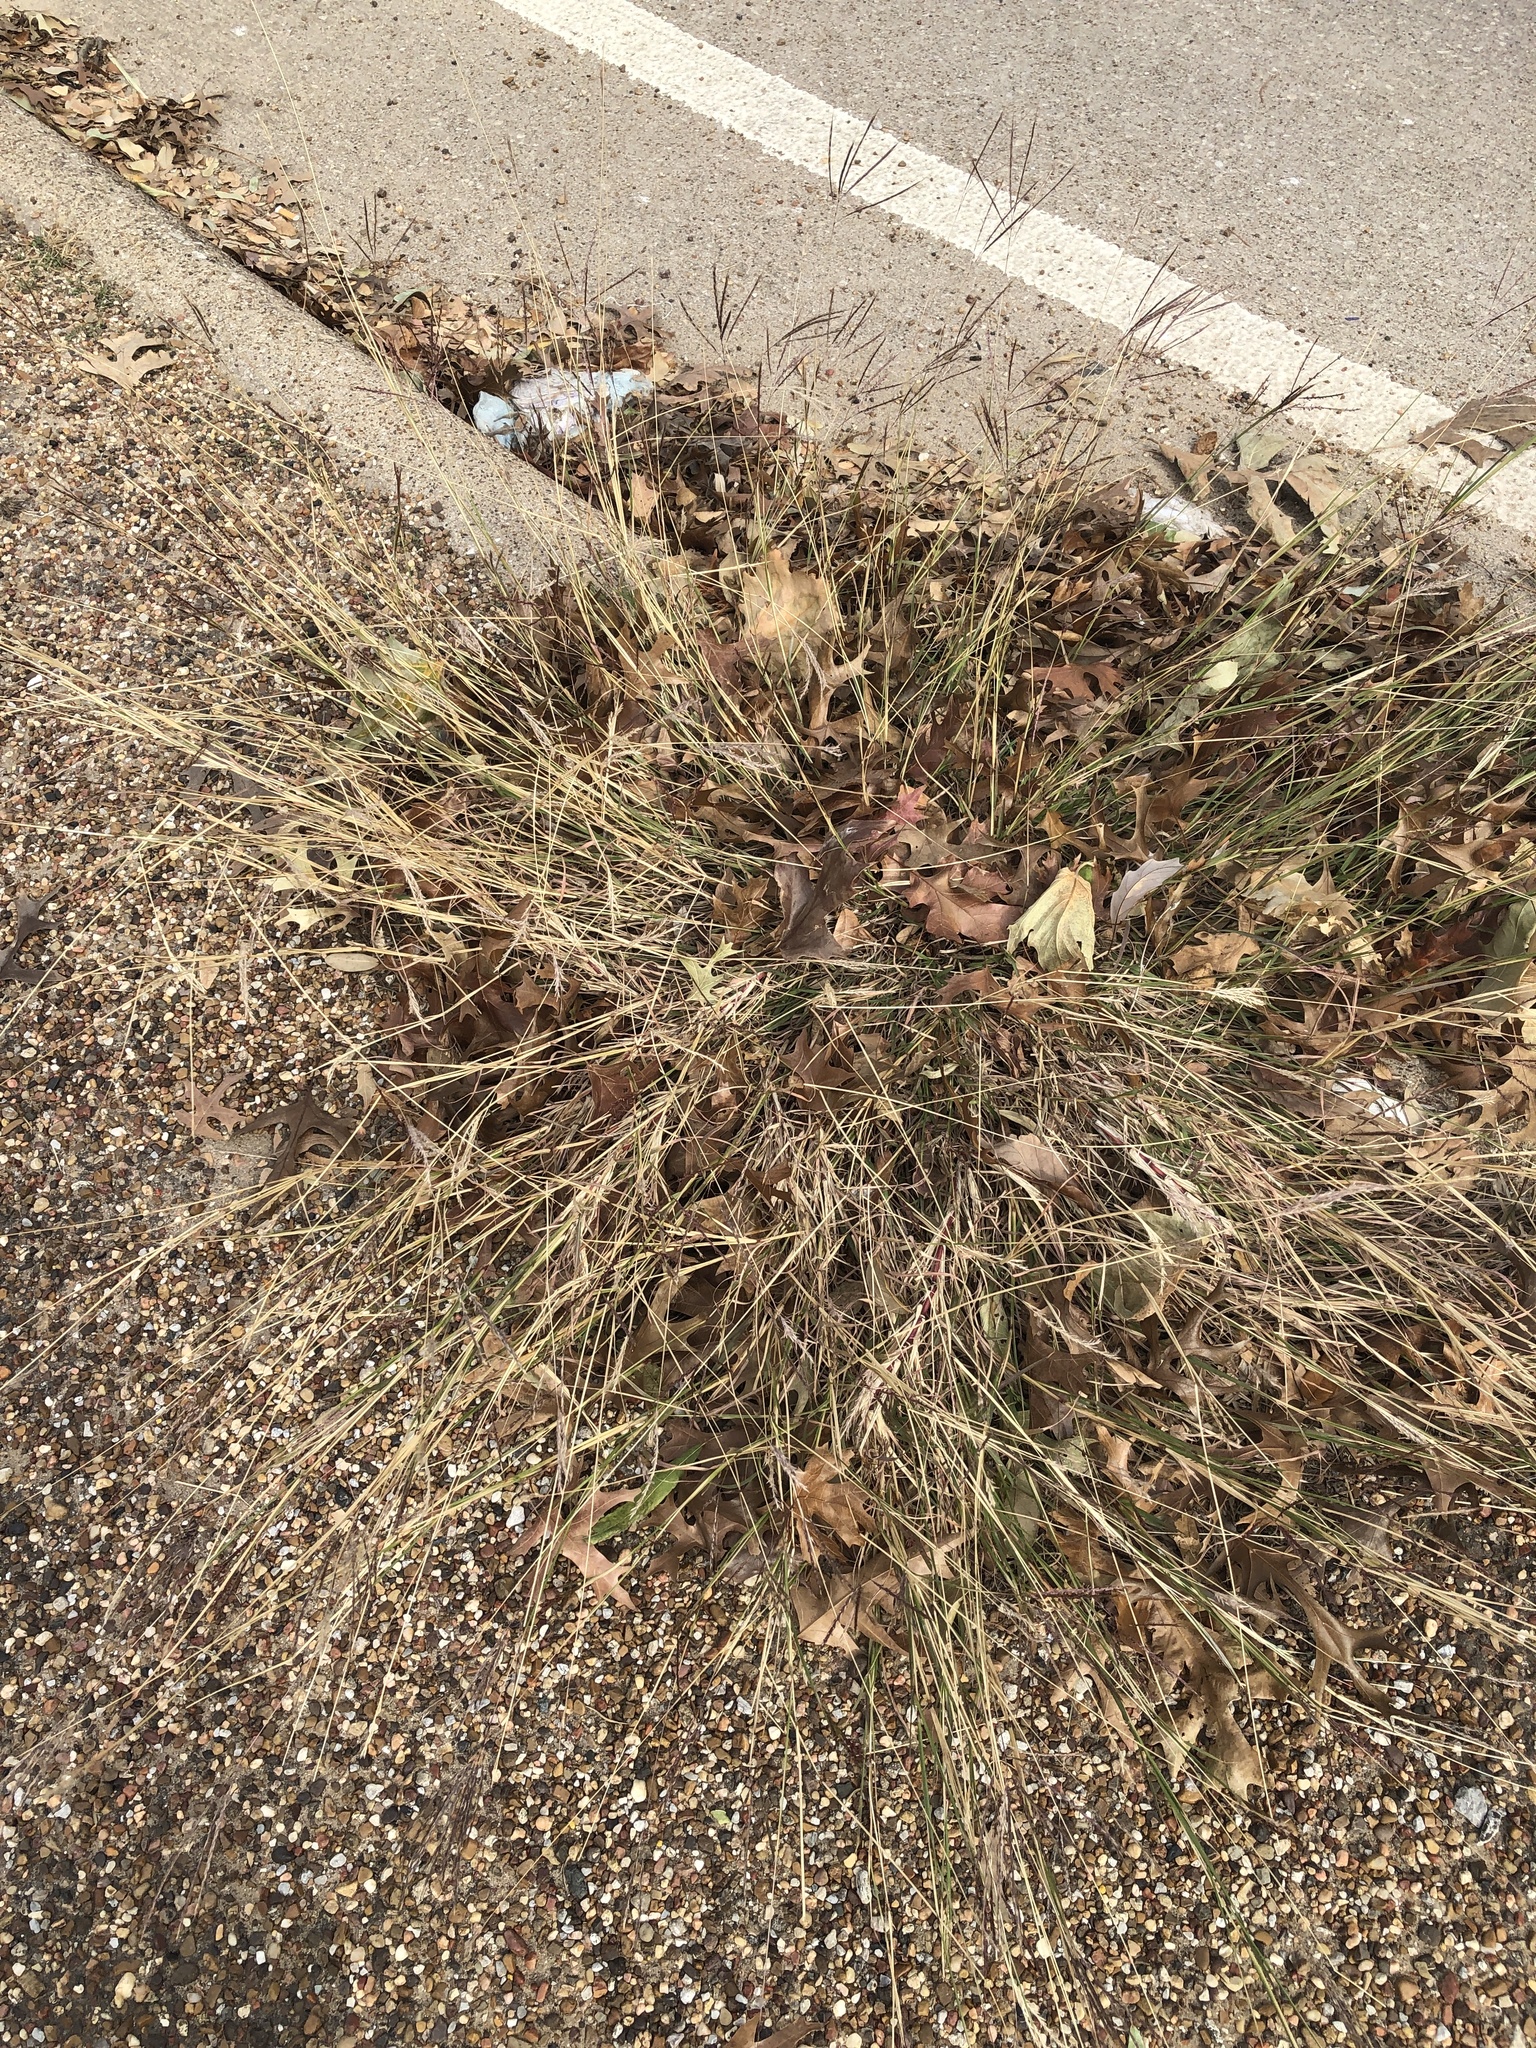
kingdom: Plantae
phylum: Tracheophyta
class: Liliopsida
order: Poales
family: Poaceae
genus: Bothriochloa
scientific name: Bothriochloa ischaemum
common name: Yellow bluestem
